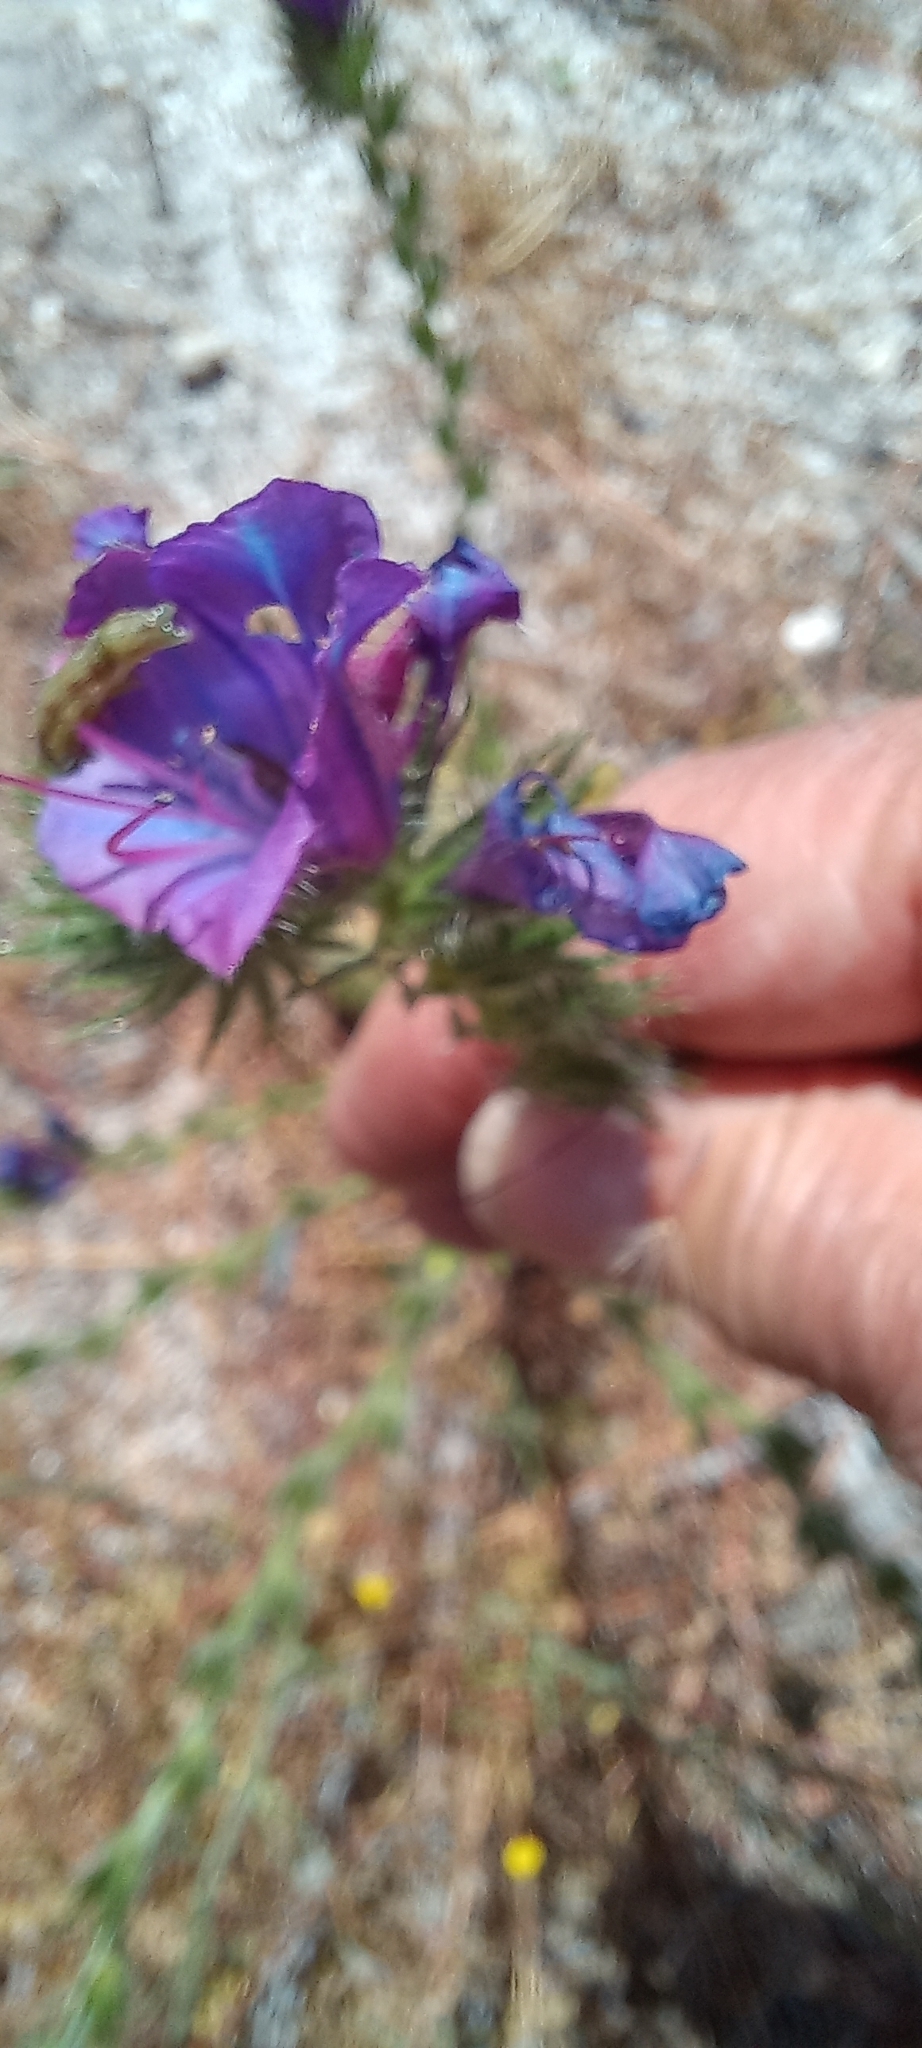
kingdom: Plantae
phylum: Tracheophyta
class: Magnoliopsida
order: Boraginales
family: Boraginaceae
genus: Echium
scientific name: Echium plantagineum
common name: Purple viper's-bugloss
